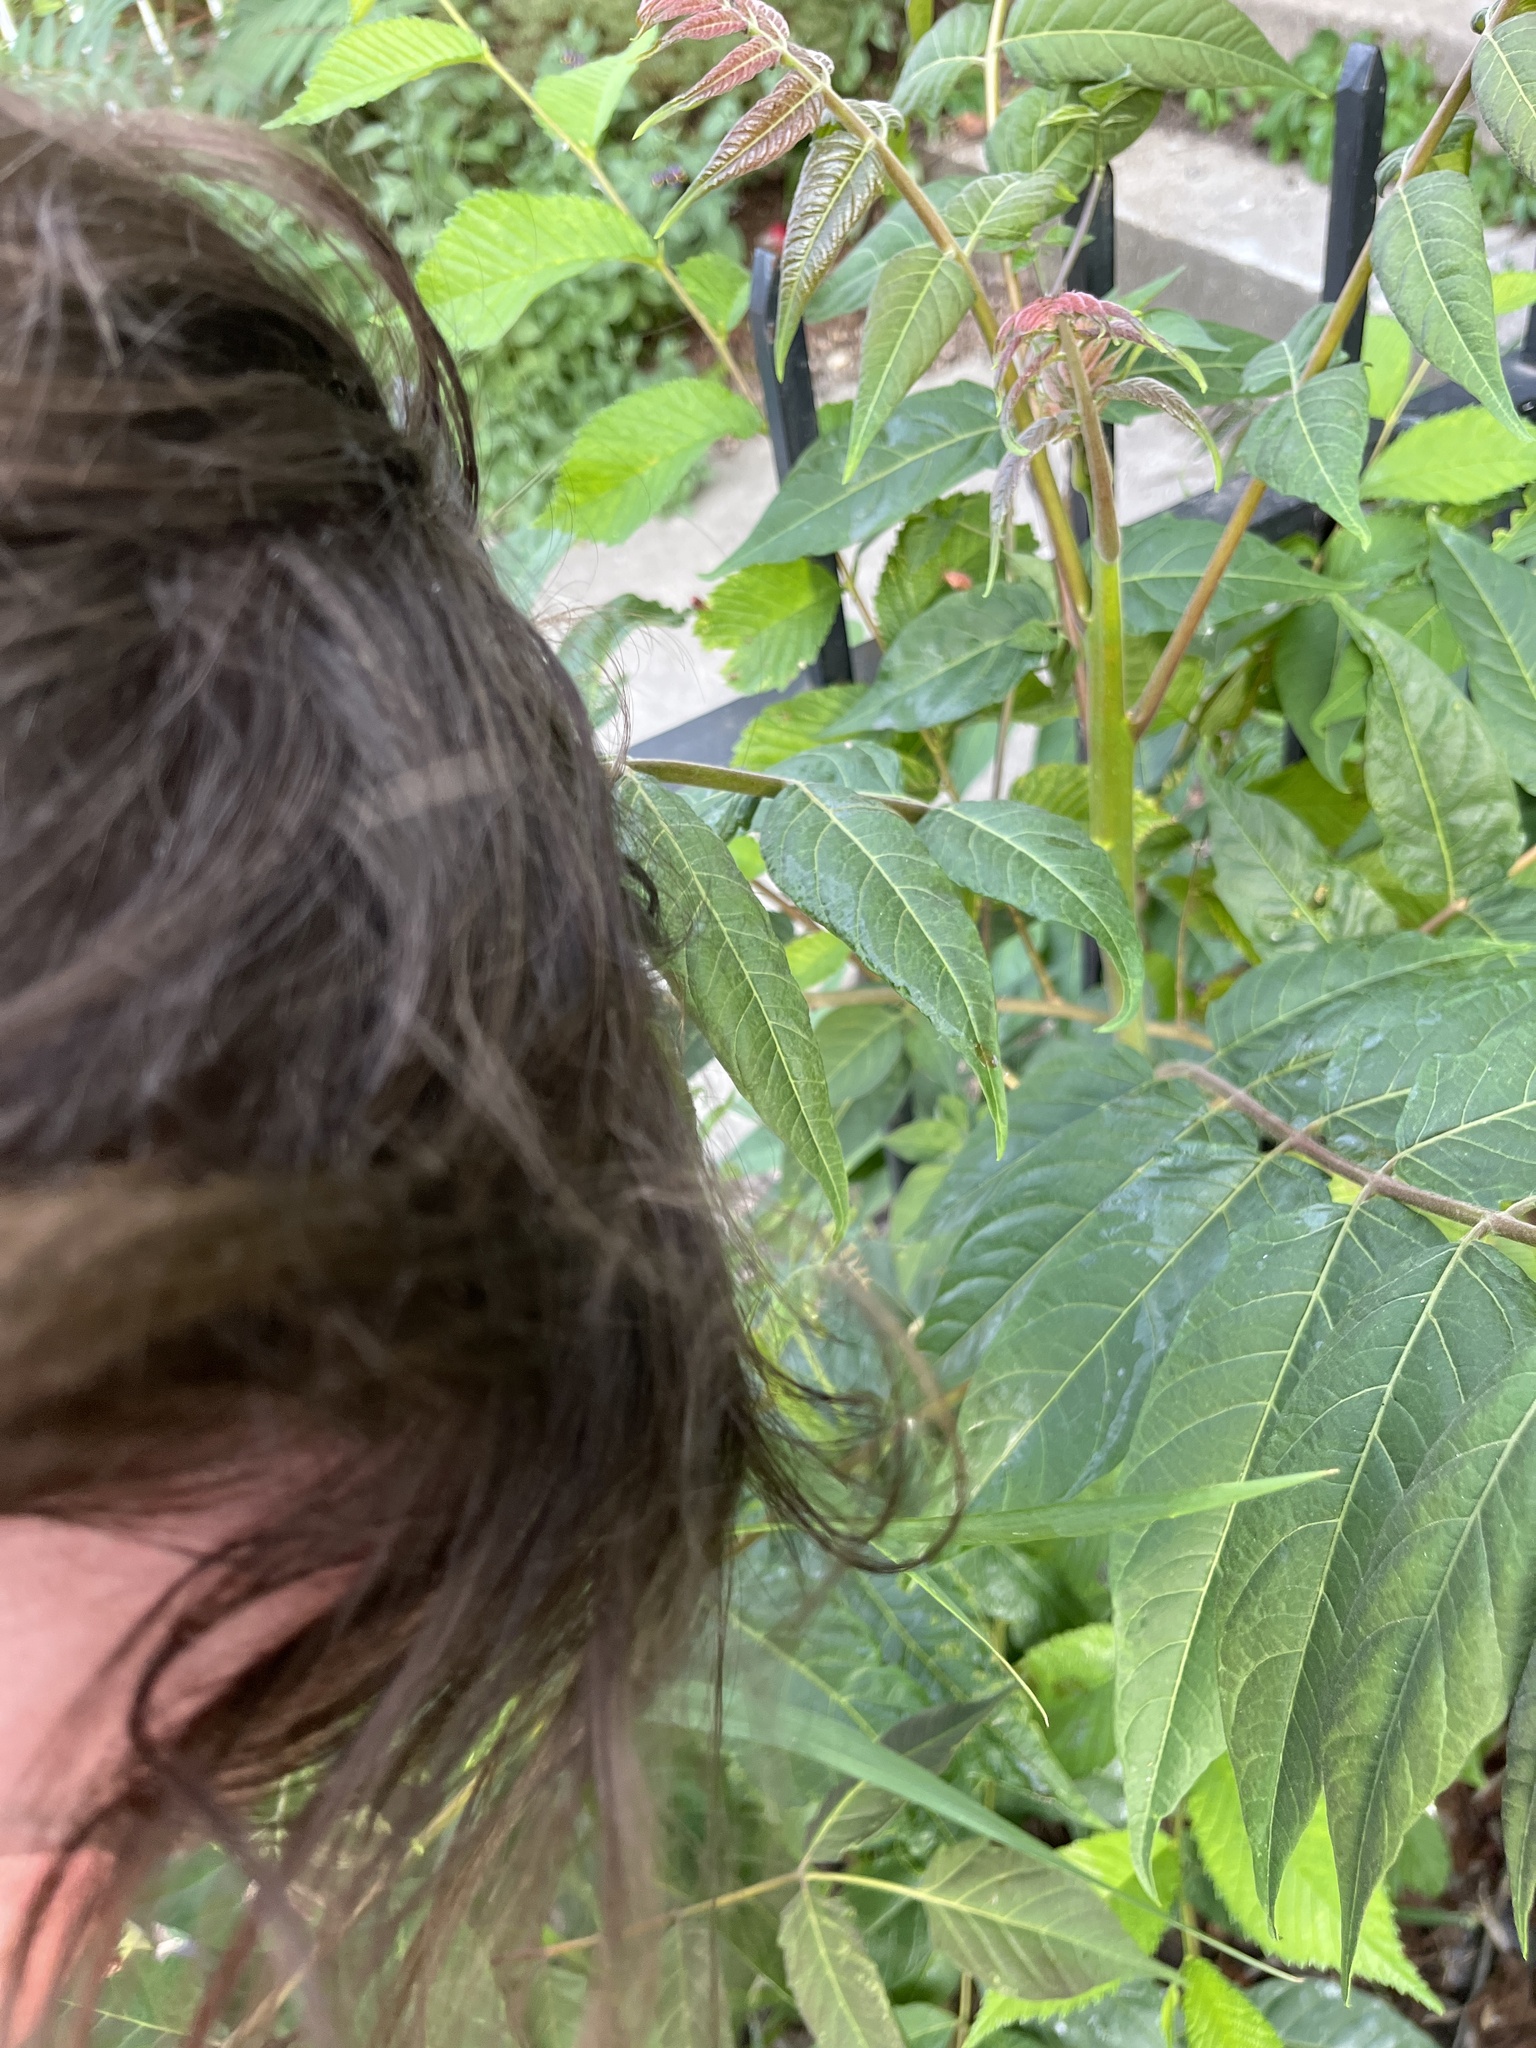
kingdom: Plantae
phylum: Tracheophyta
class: Magnoliopsida
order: Sapindales
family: Simaroubaceae
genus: Ailanthus
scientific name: Ailanthus altissima
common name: Tree-of-heaven
